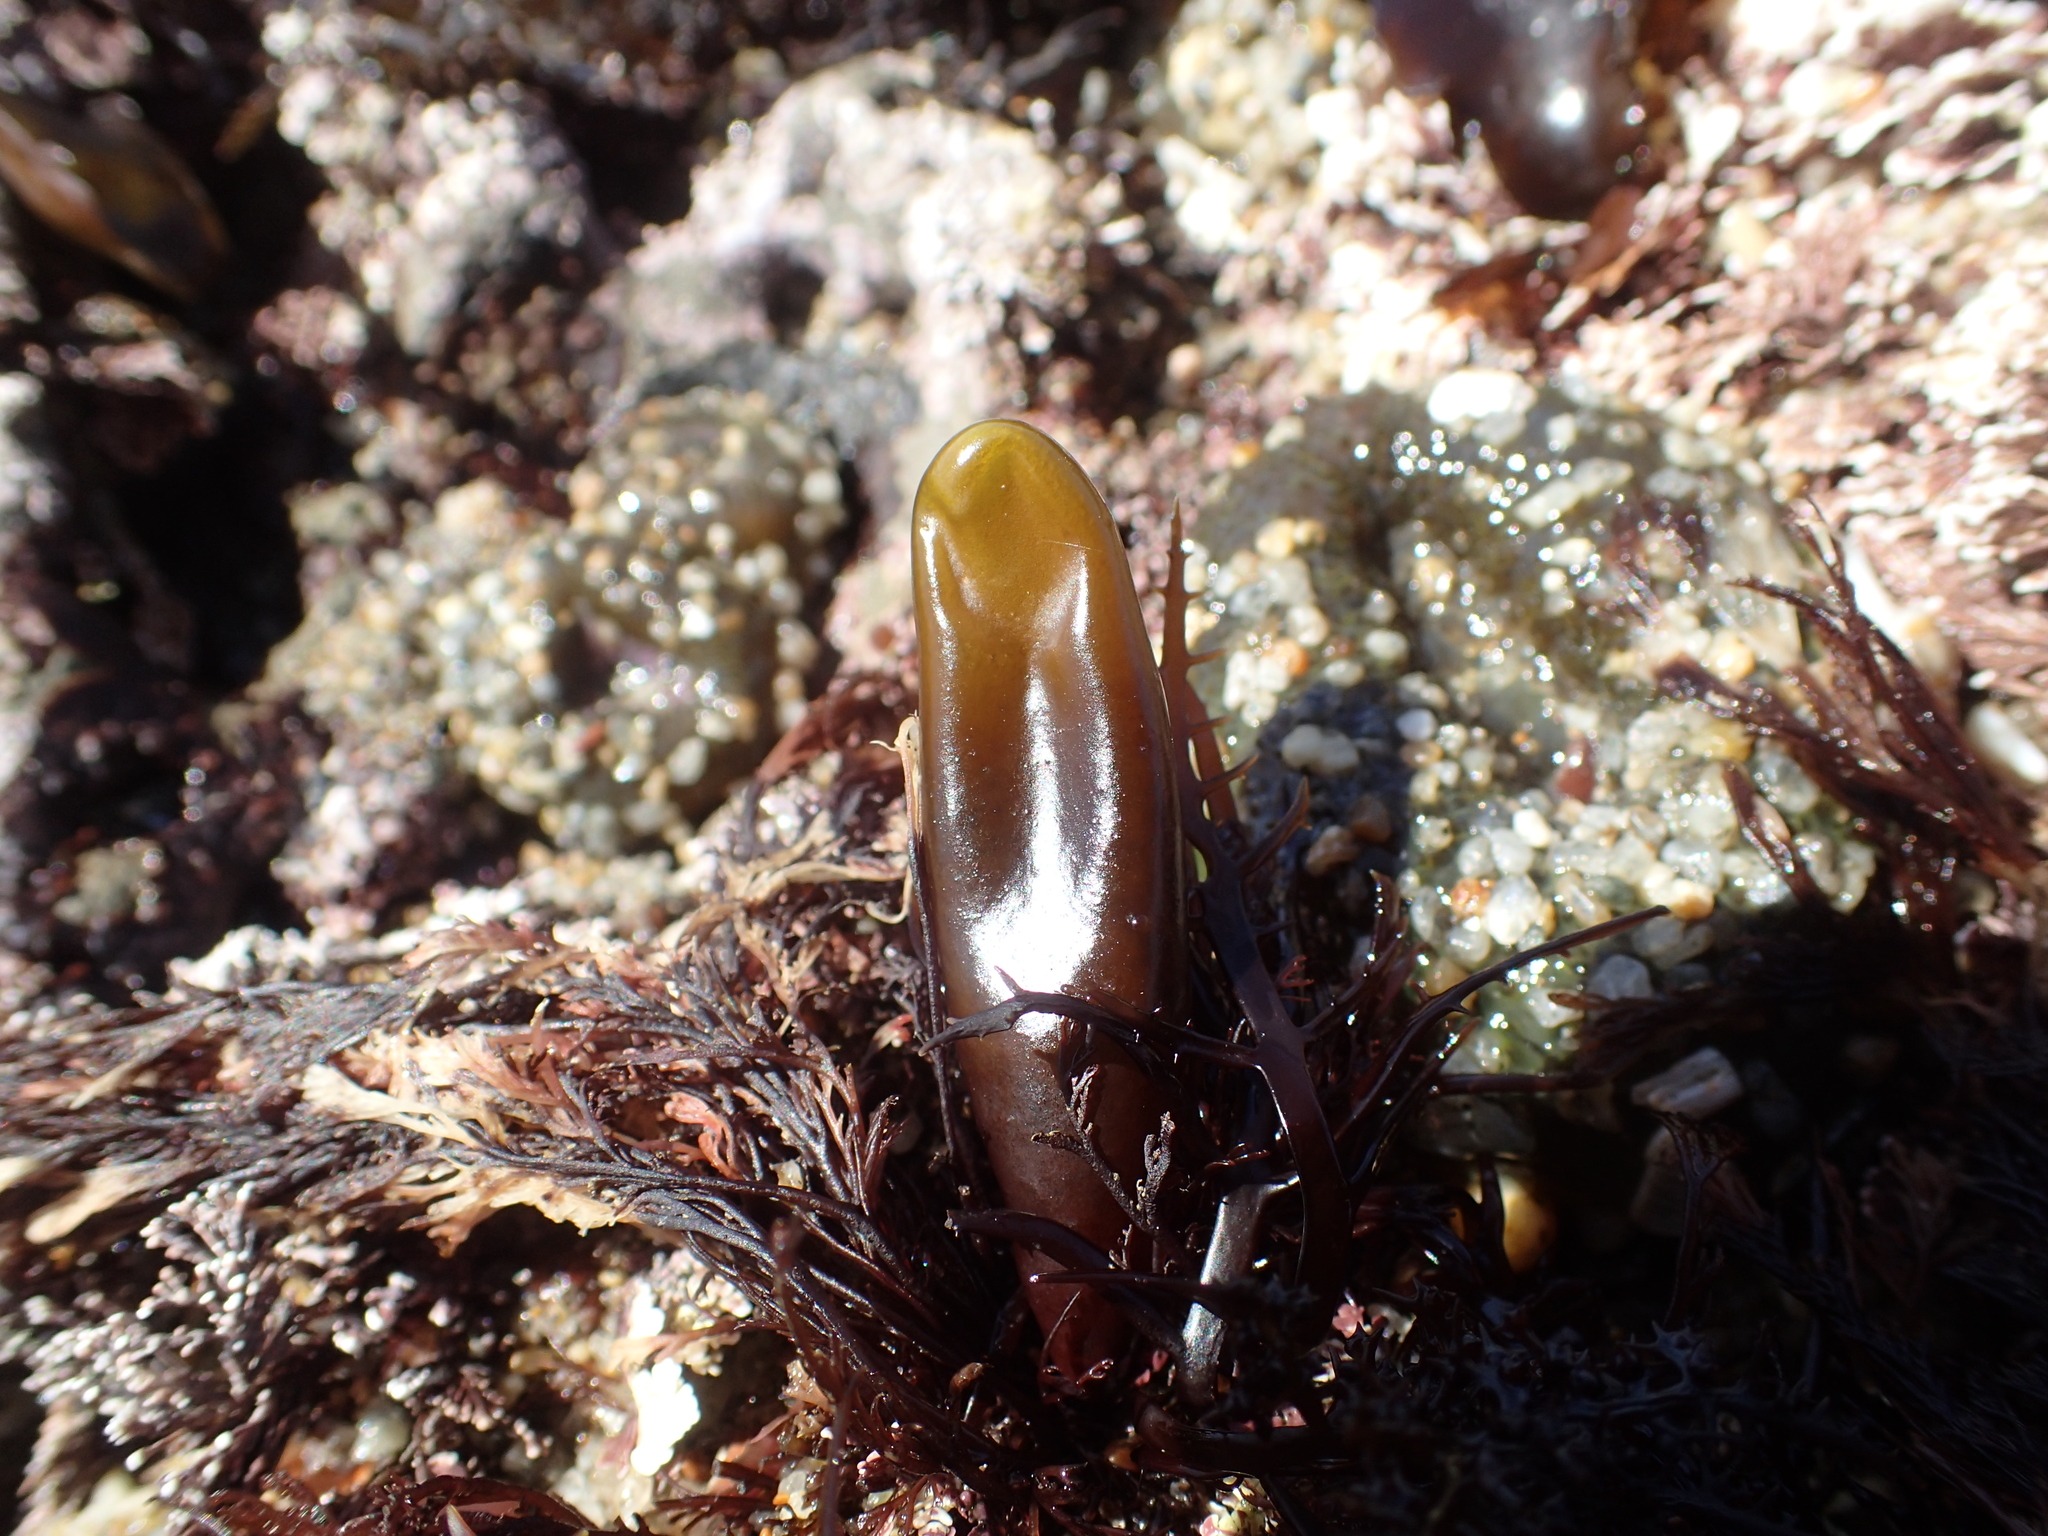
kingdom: Plantae
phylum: Rhodophyta
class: Florideophyceae
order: Palmariales
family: Palmariaceae
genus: Halosaccion
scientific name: Halosaccion glandiforme
